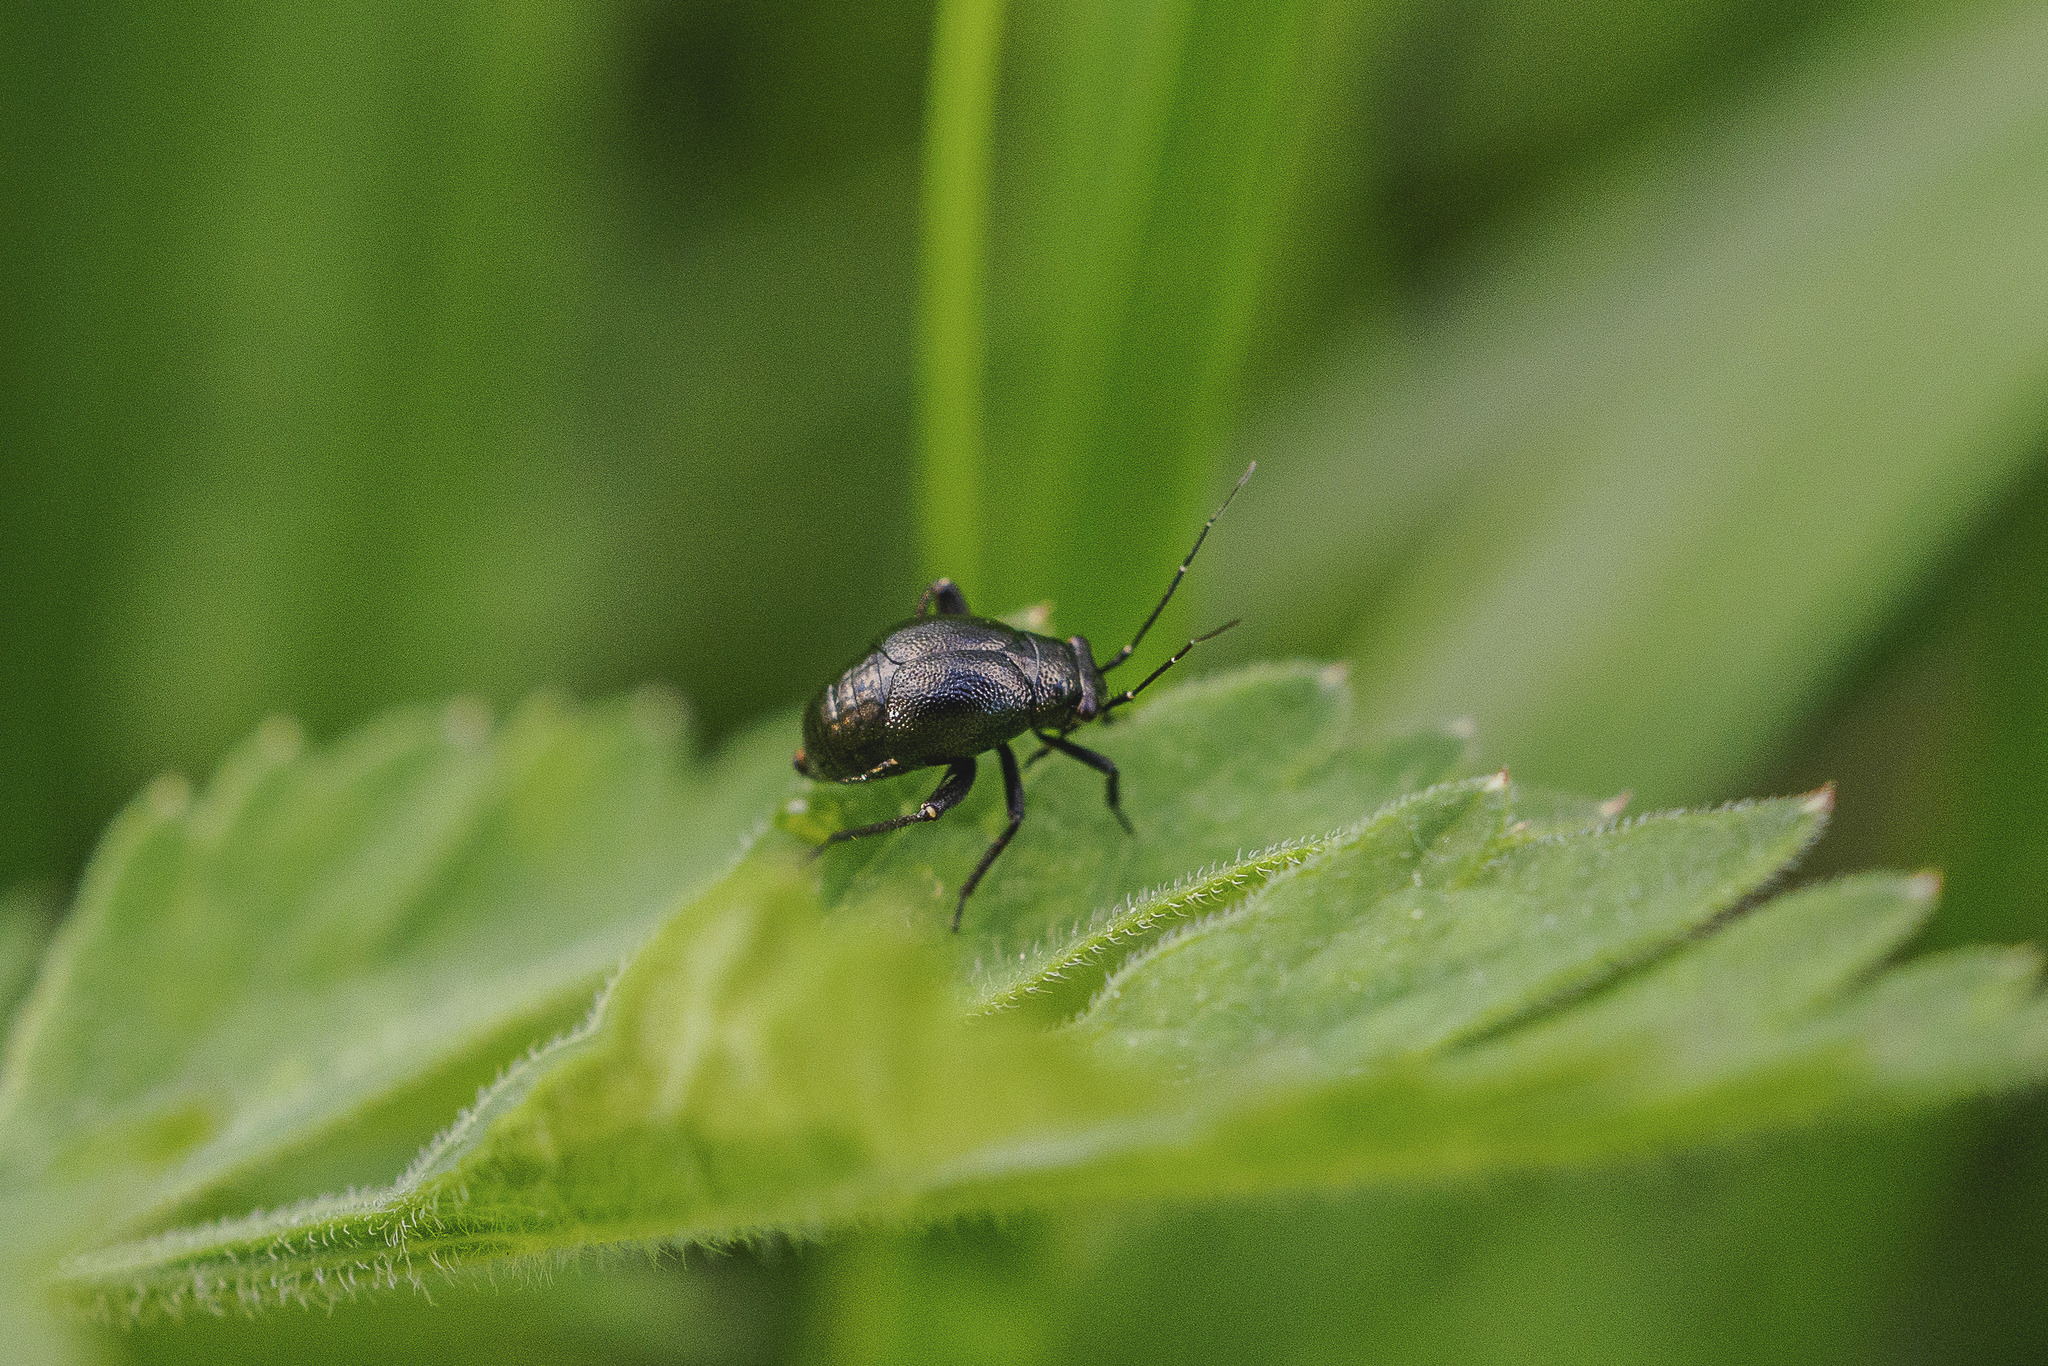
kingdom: Animalia
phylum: Arthropoda
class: Insecta
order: Hemiptera
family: Miridae
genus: Euryopicoris
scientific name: Euryopicoris nitidus
